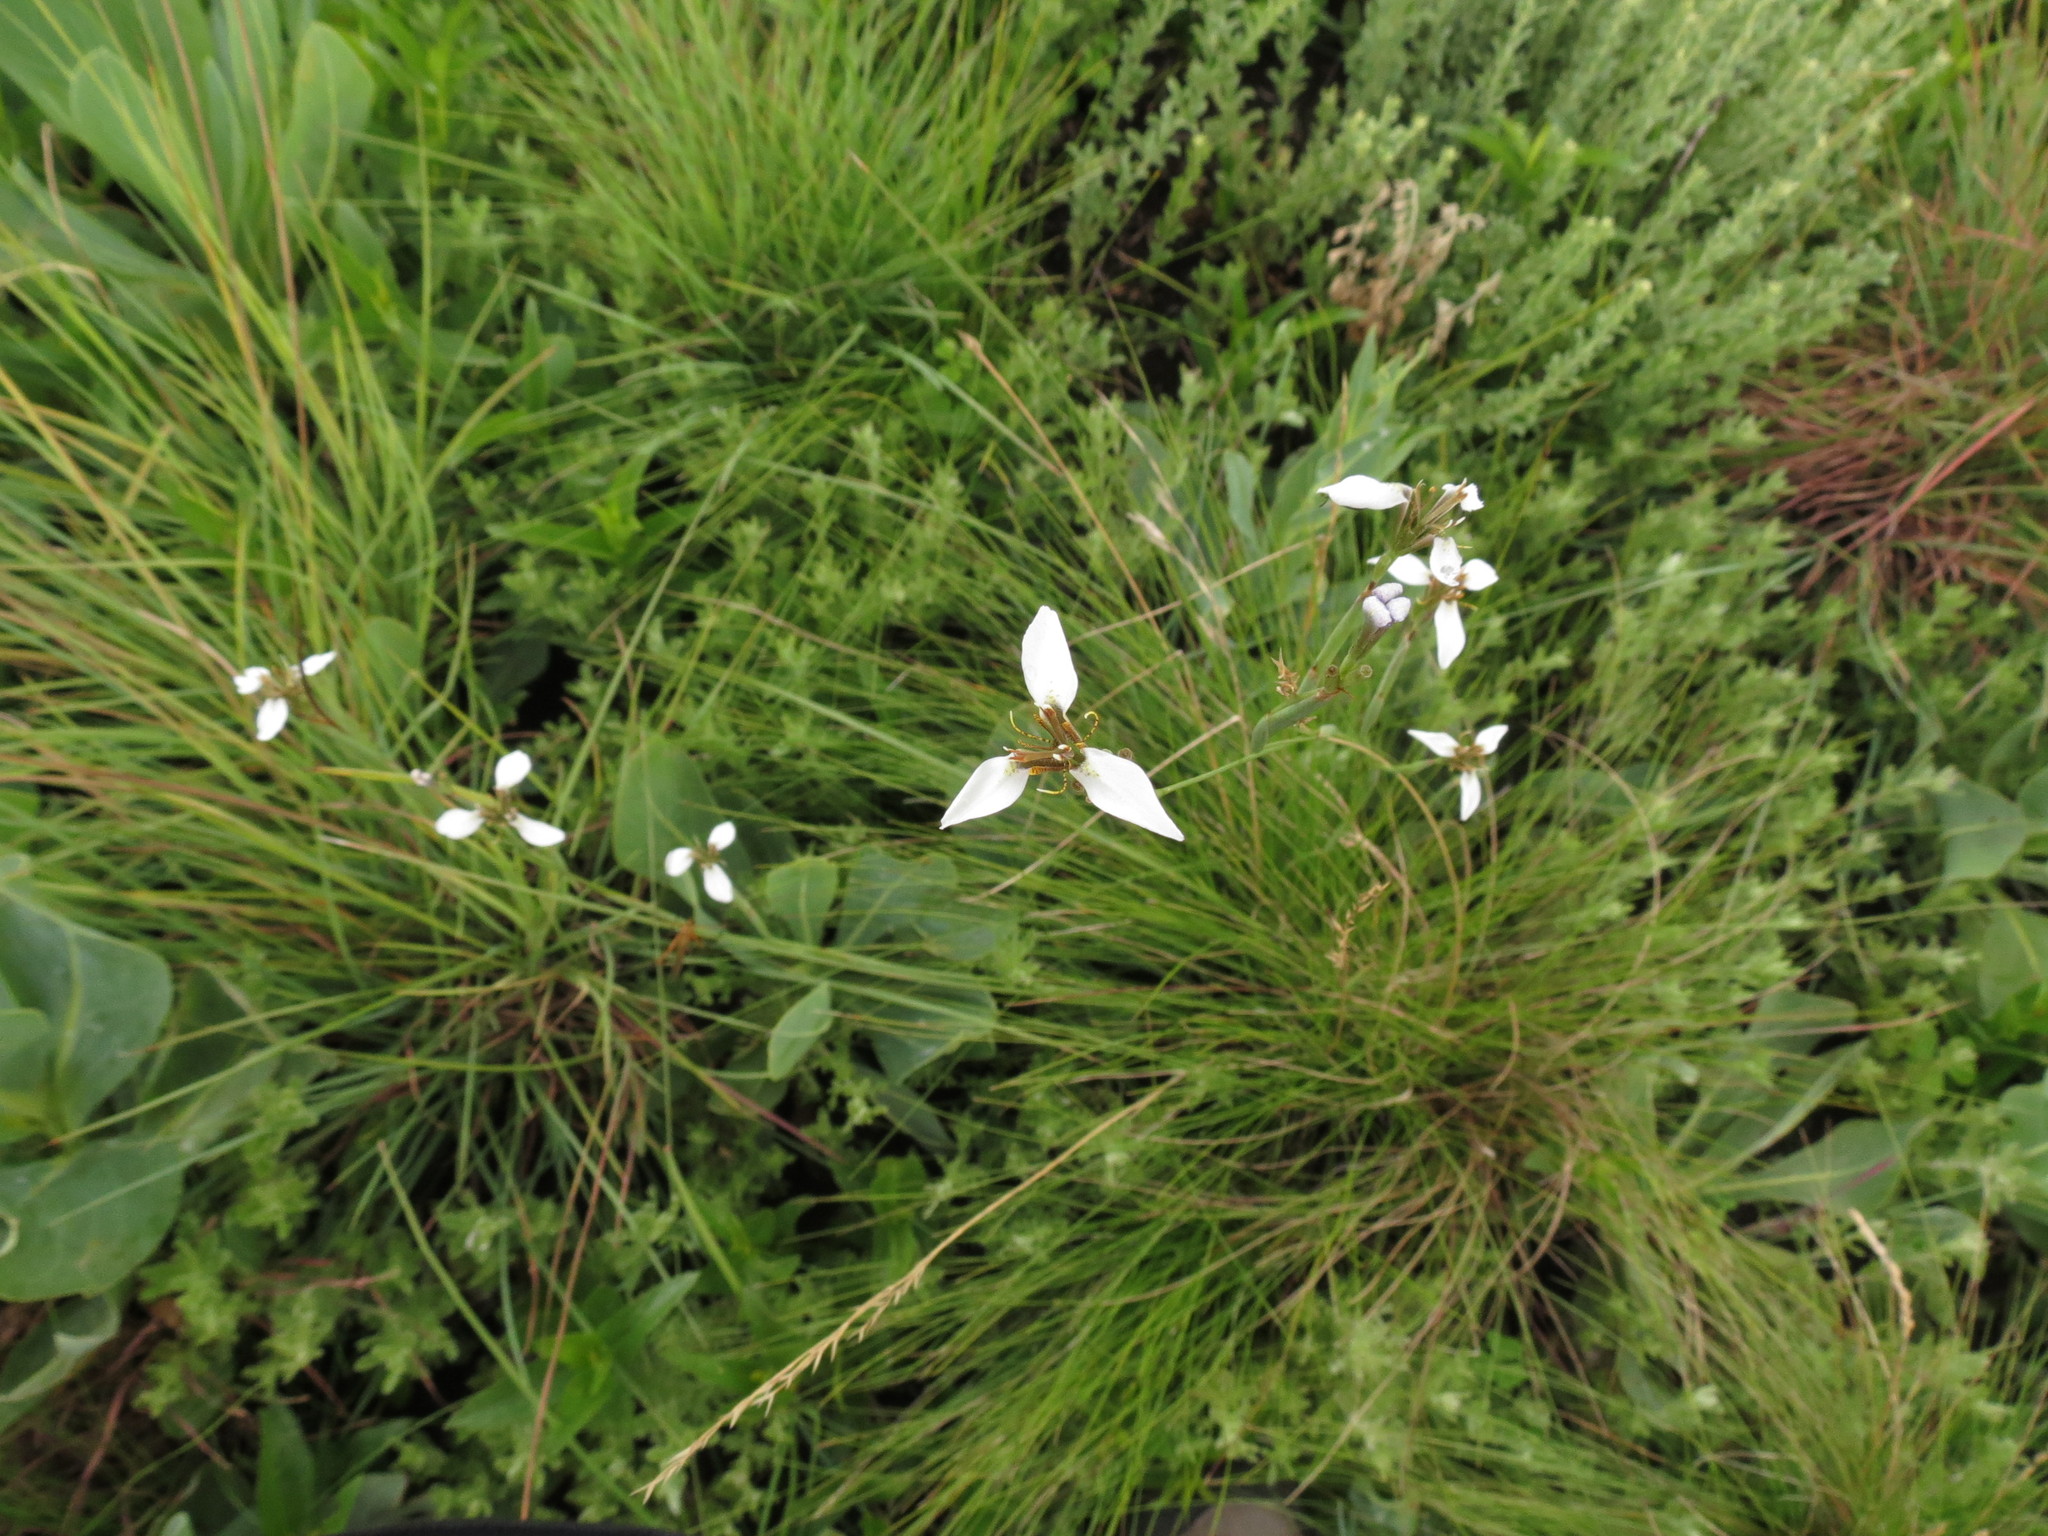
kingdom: Plantae
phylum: Tracheophyta
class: Liliopsida
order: Asparagales
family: Iridaceae
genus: Moraea
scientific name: Moraea brevistyla
